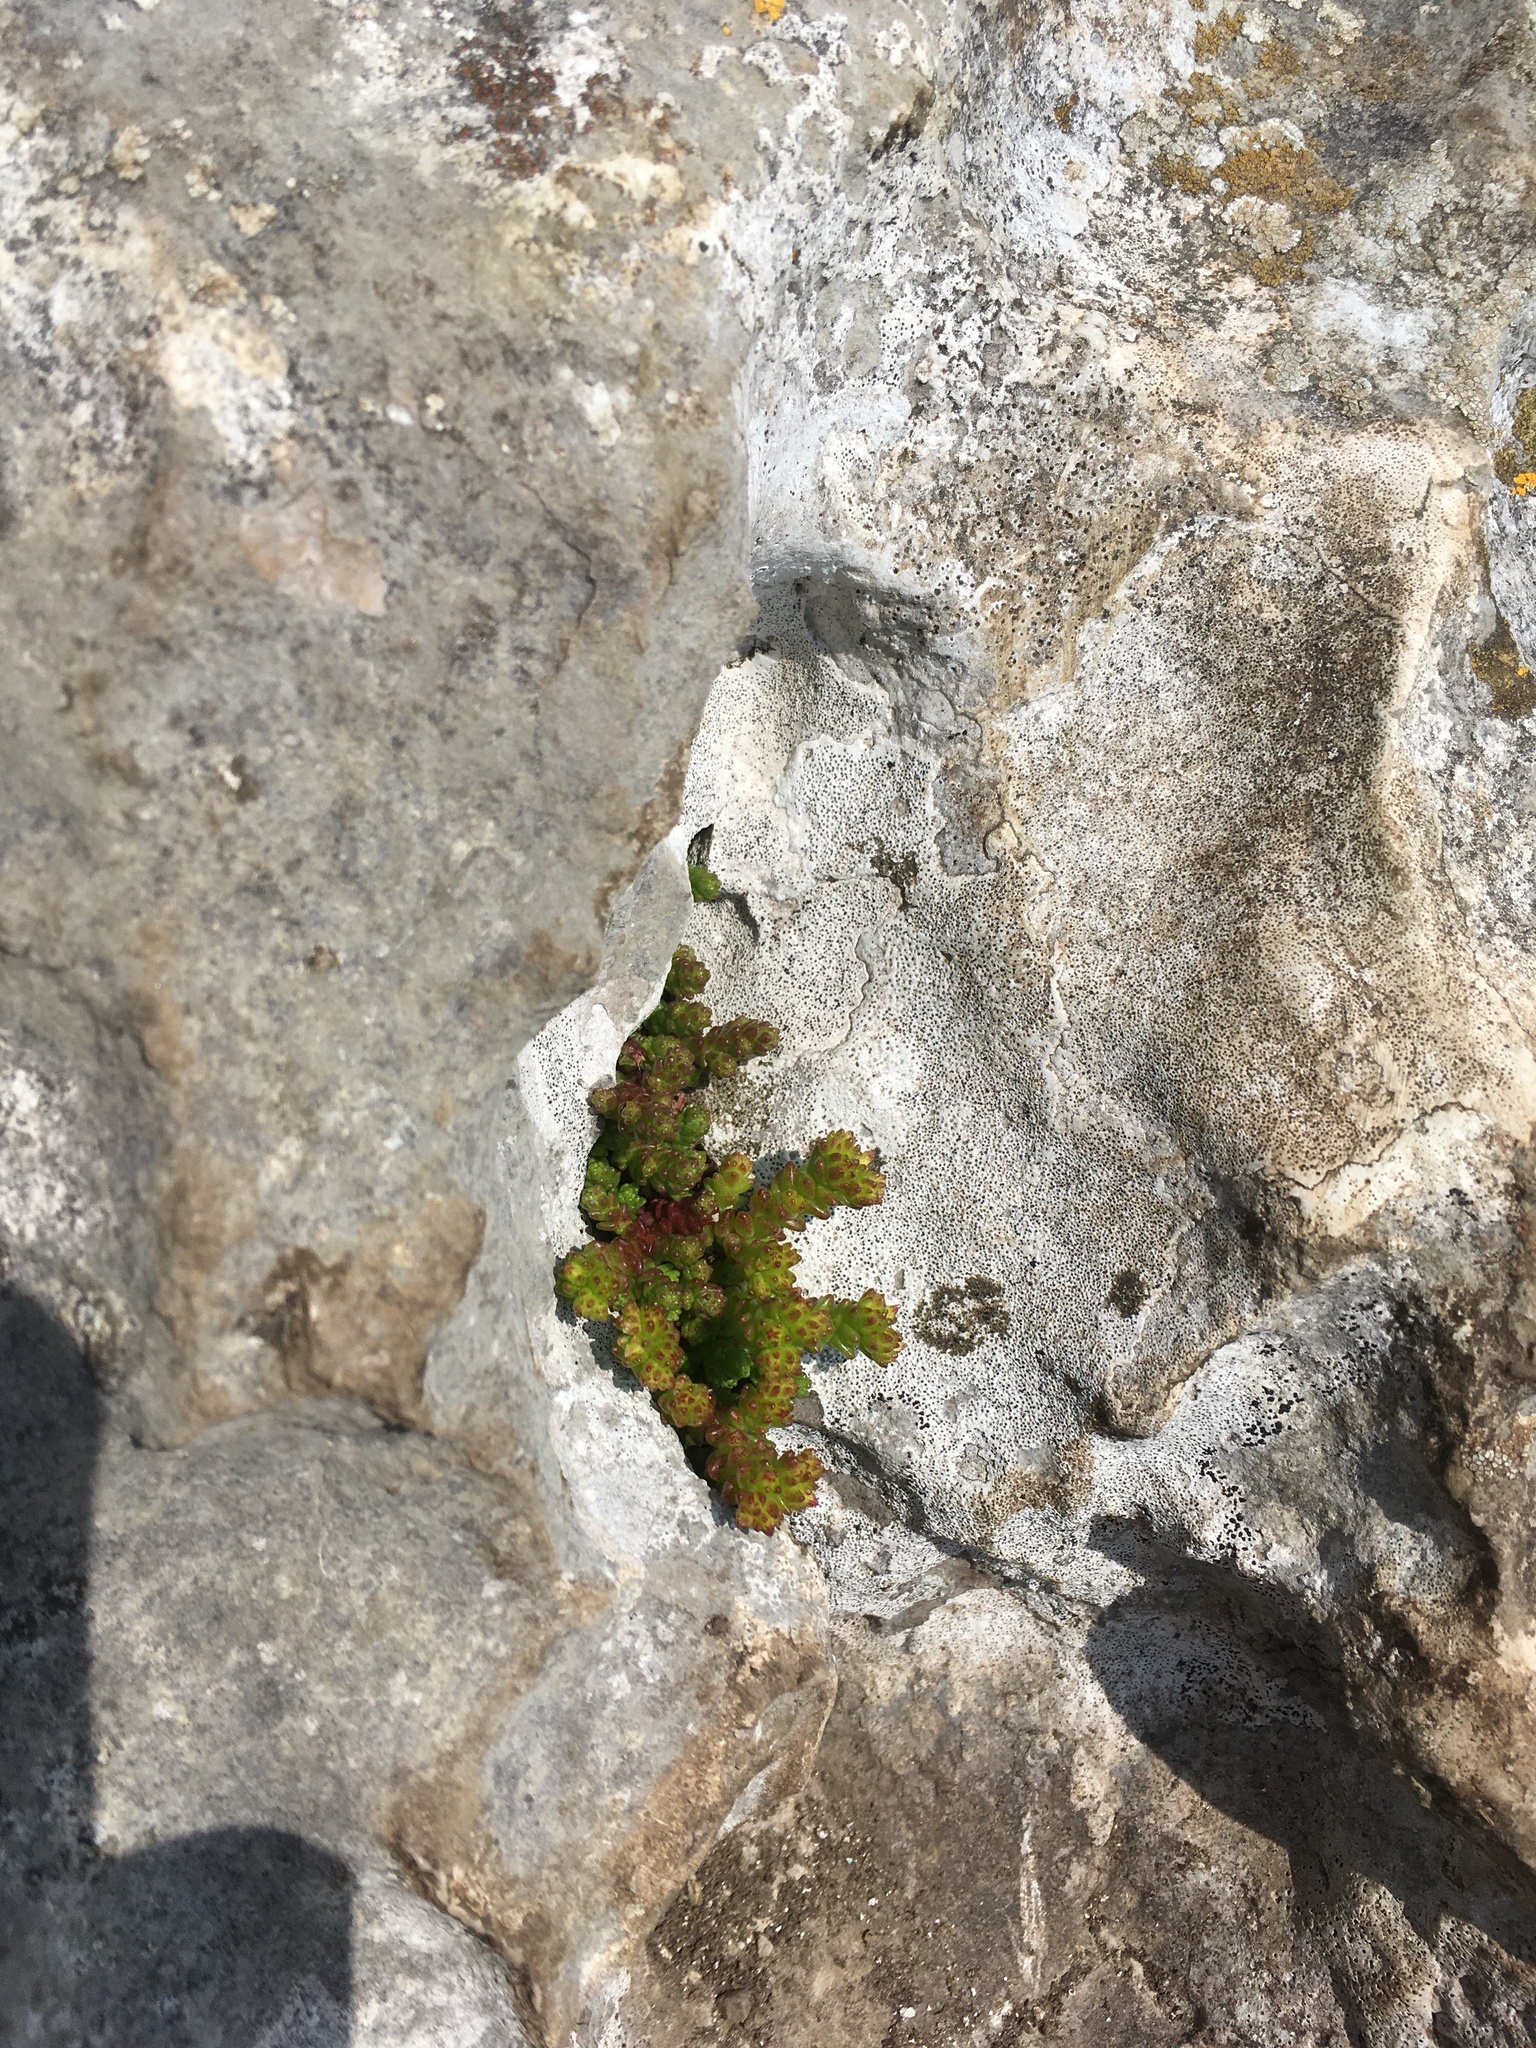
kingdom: Plantae
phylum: Tracheophyta
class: Magnoliopsida
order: Saxifragales
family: Crassulaceae
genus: Sedum
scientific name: Sedum acre
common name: Biting stonecrop
